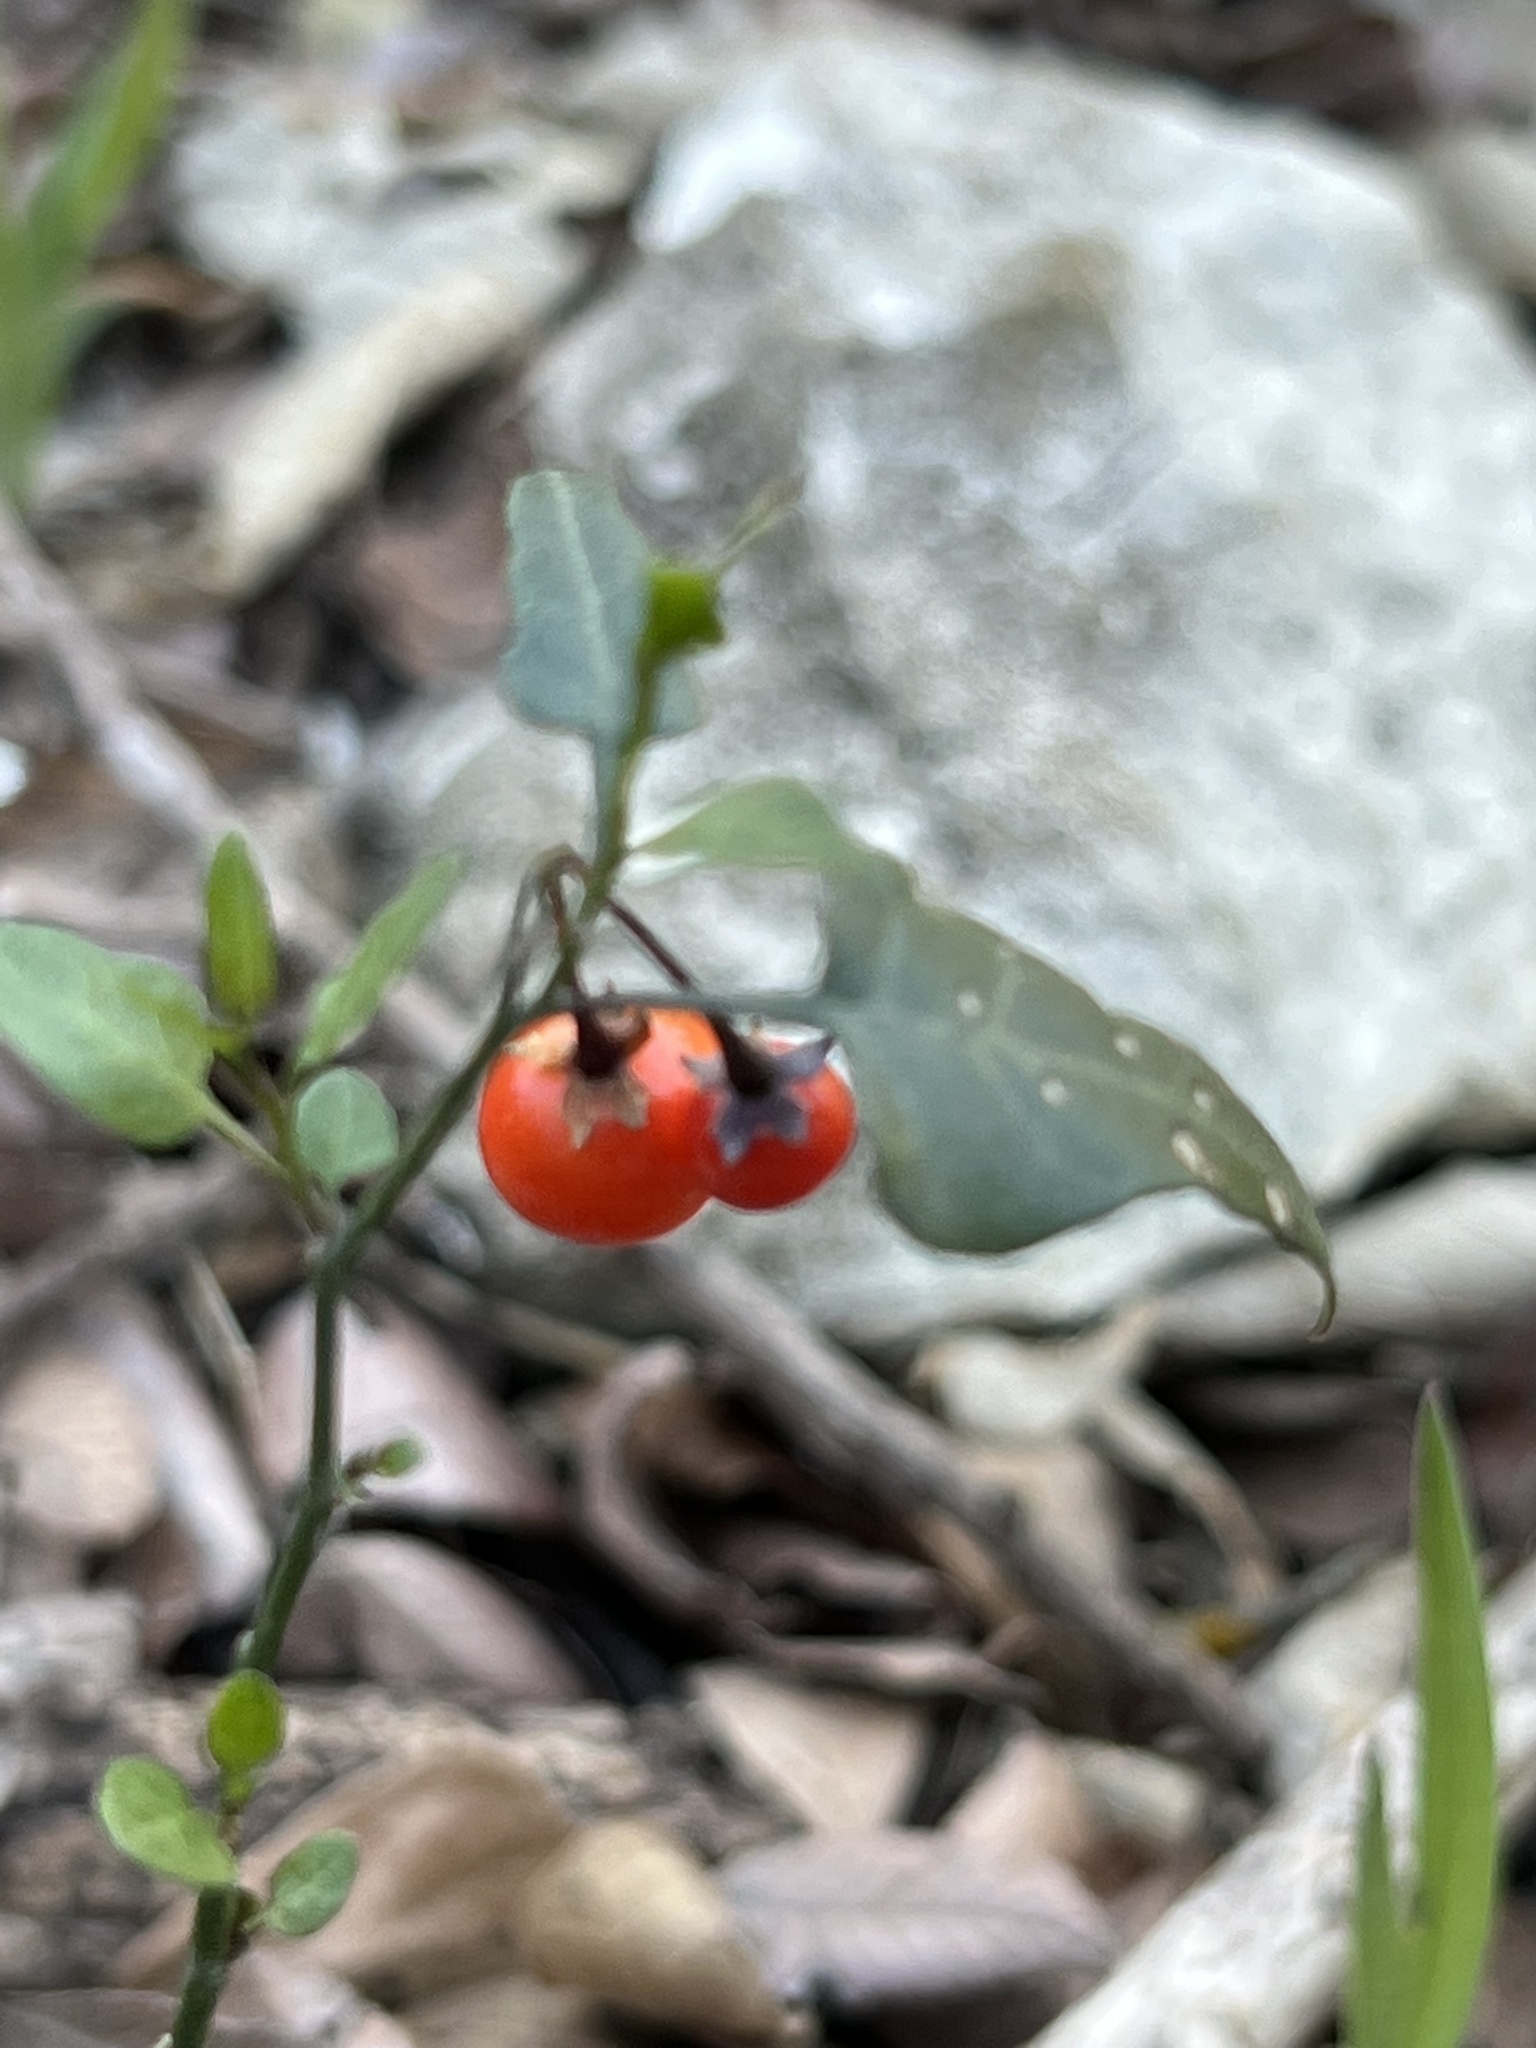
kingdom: Plantae
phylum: Tracheophyta
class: Magnoliopsida
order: Solanales
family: Solanaceae
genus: Solanum
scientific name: Solanum triquetrum
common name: Texas nightshade
